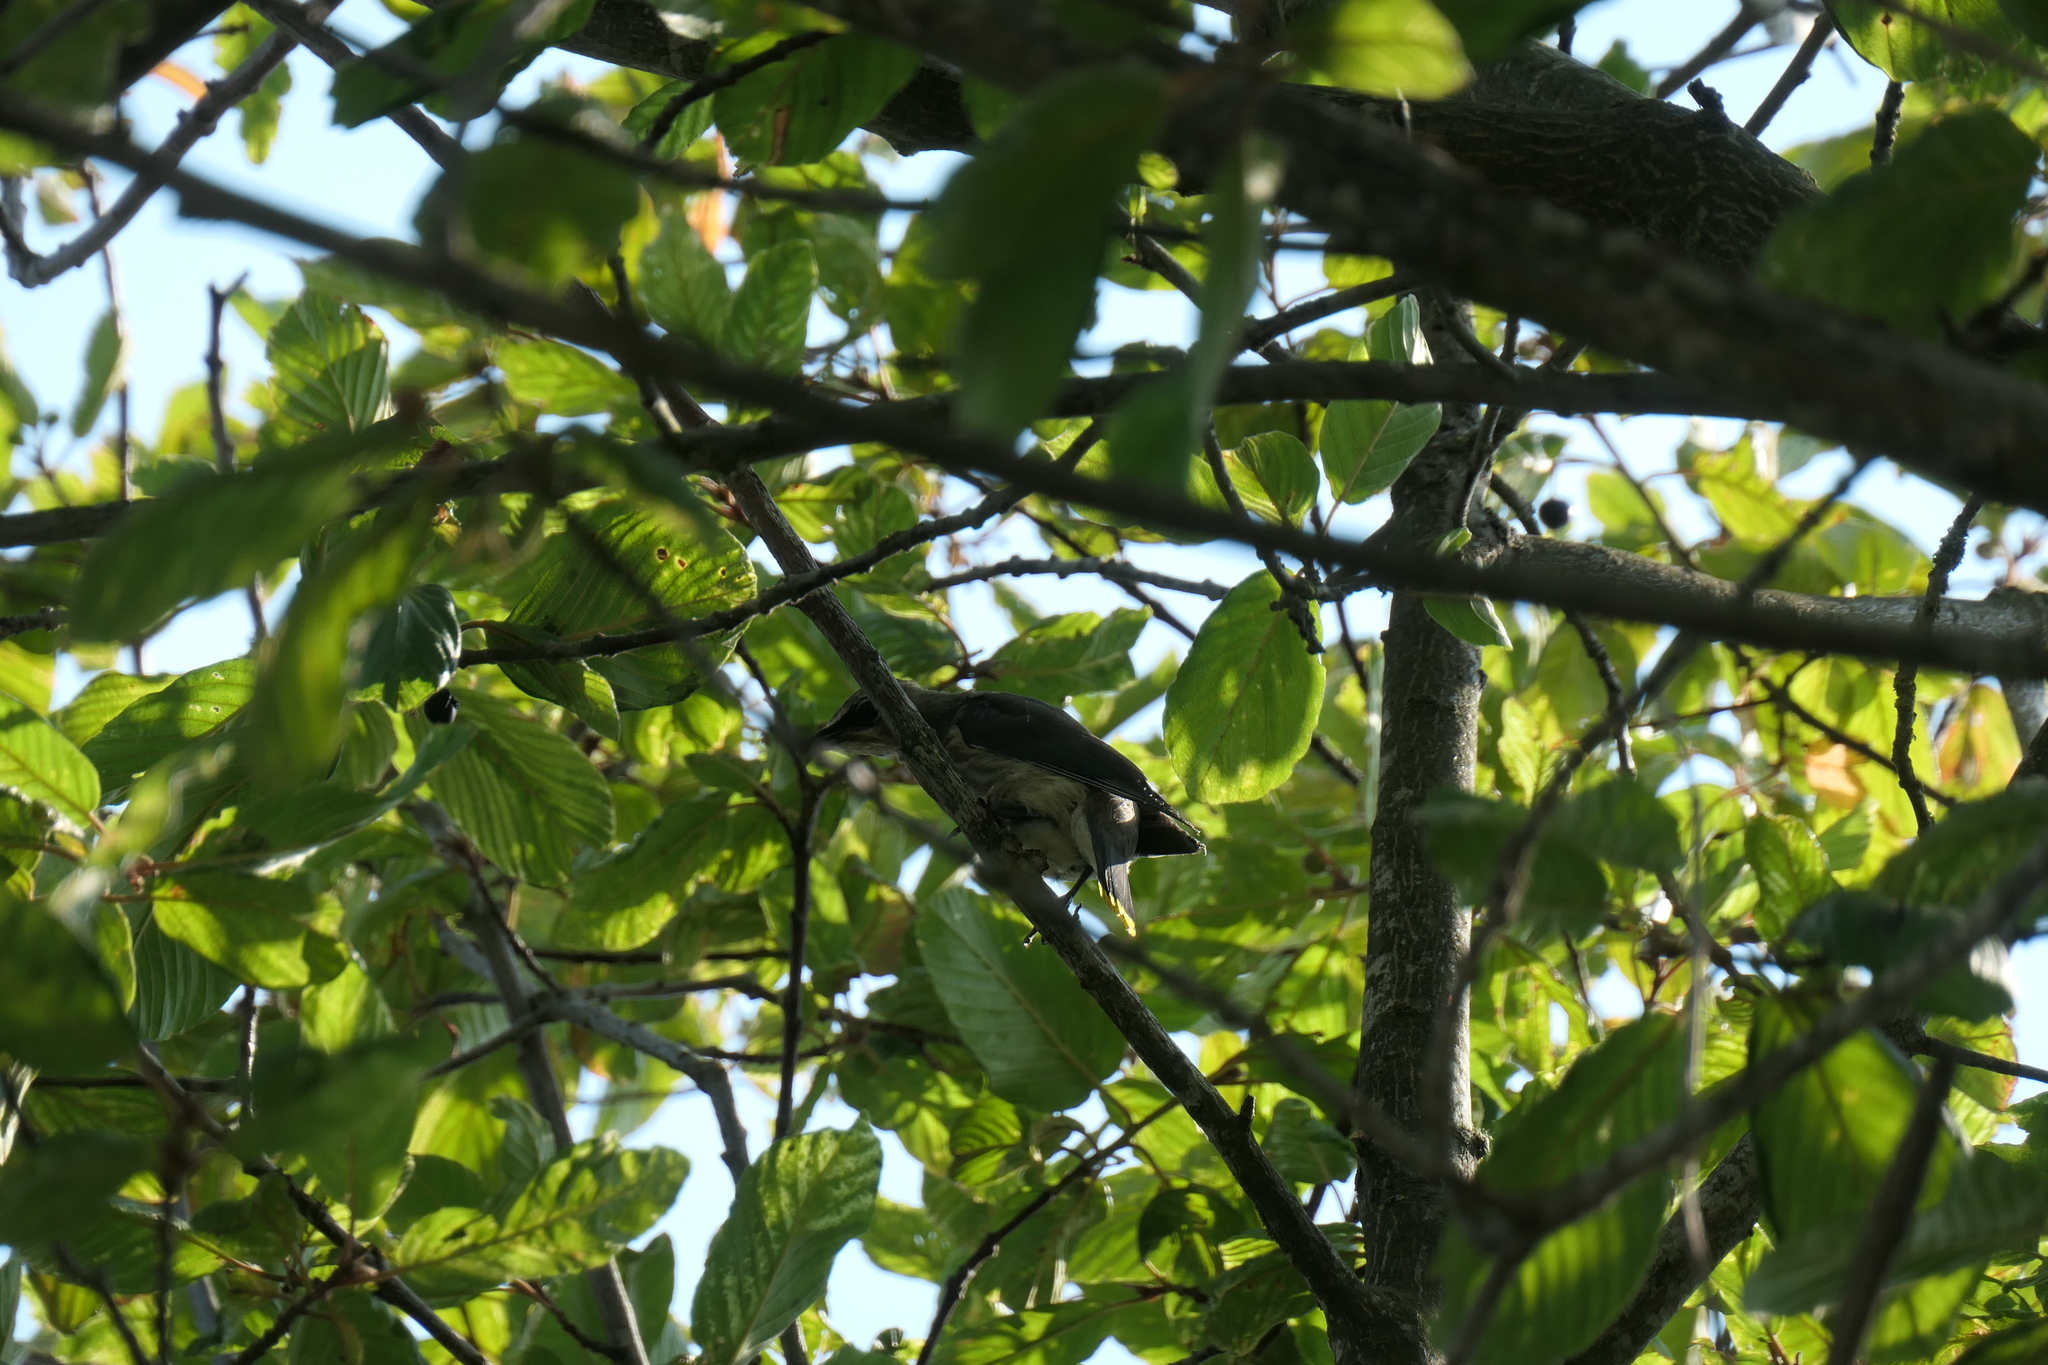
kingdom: Animalia
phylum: Chordata
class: Aves
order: Passeriformes
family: Bombycillidae
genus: Bombycilla
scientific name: Bombycilla cedrorum
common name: Cedar waxwing
